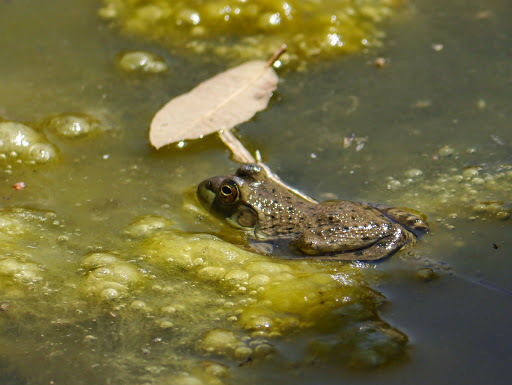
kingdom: Animalia
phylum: Chordata
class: Amphibia
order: Anura
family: Ranidae
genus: Lithobates
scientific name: Lithobates catesbeianus
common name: American bullfrog
